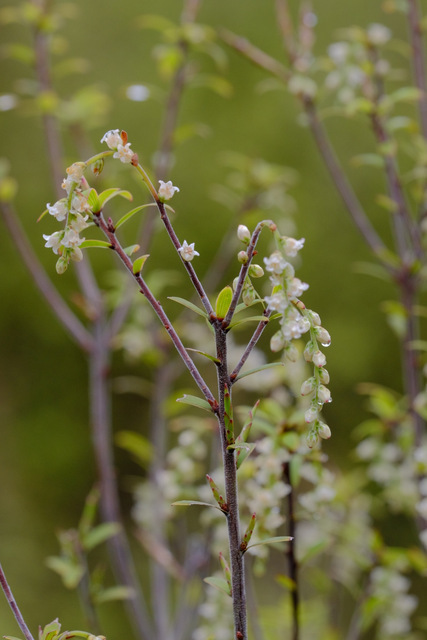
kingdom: Plantae
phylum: Tracheophyta
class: Magnoliopsida
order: Ericales
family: Ericaceae
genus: Leucopogon
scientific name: Leucopogon fasciculatus
